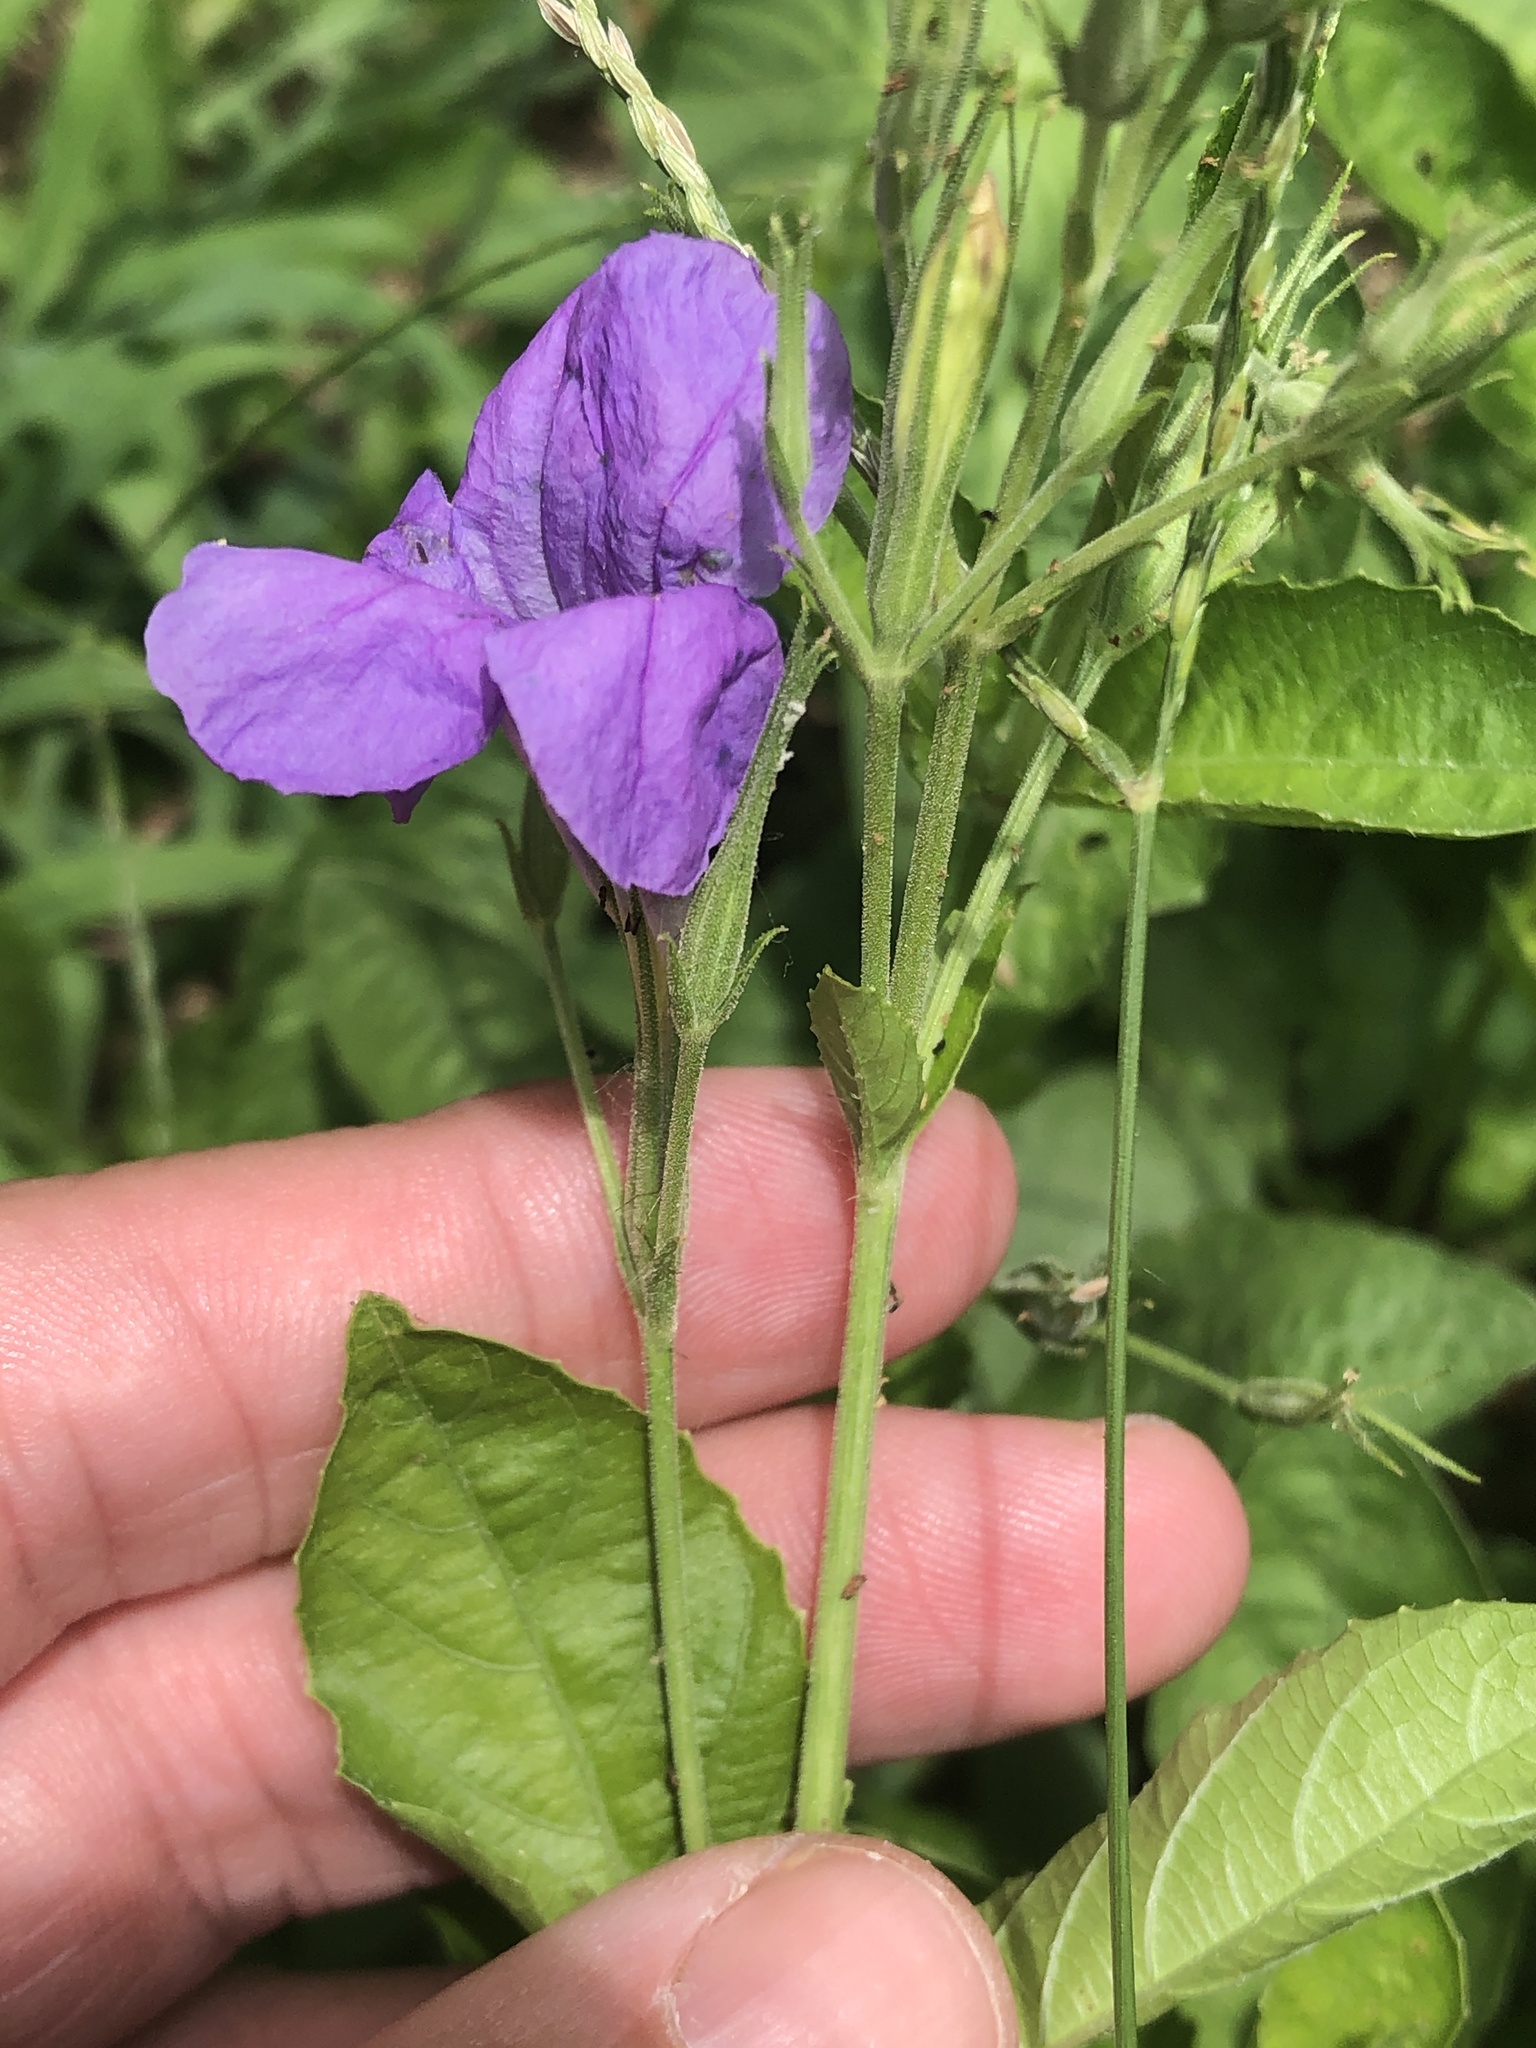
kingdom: Plantae
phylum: Tracheophyta
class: Magnoliopsida
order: Lamiales
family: Acanthaceae
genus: Ruellia
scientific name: Ruellia ciliatiflora
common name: Hairyflower wild petunia
